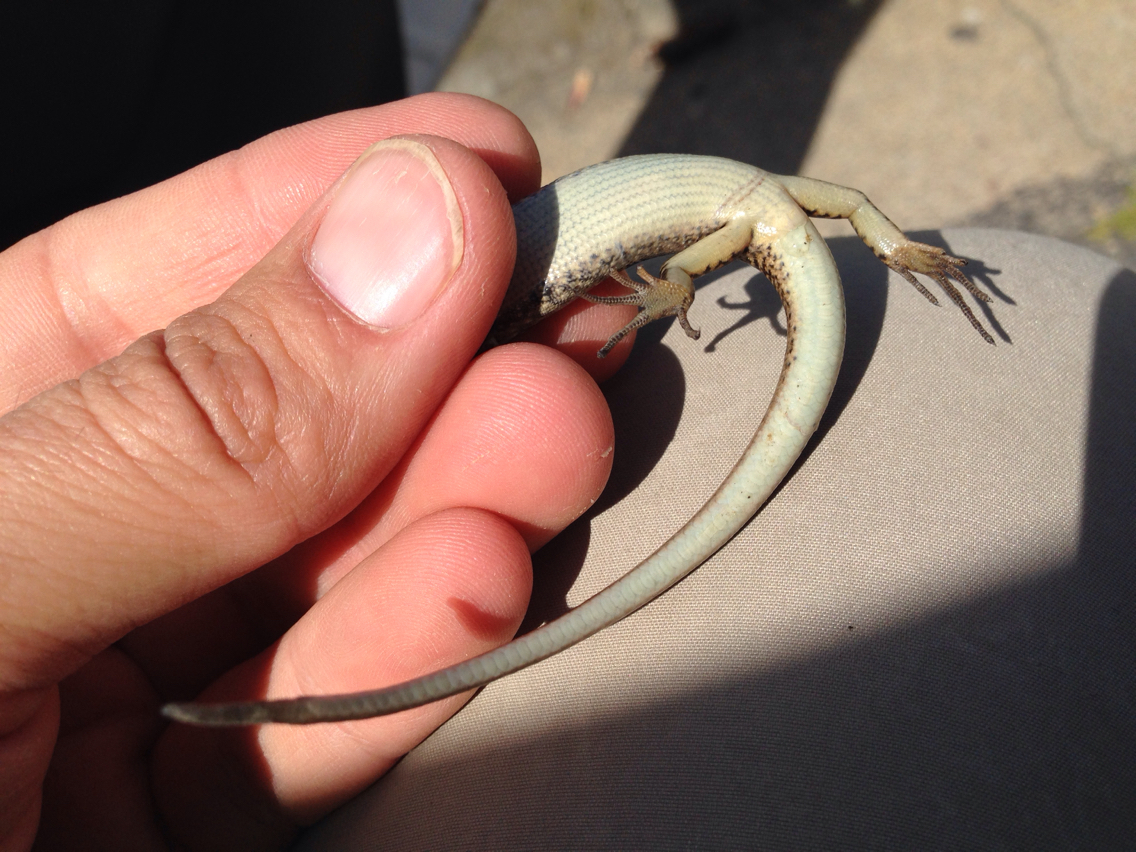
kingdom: Animalia
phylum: Chordata
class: Squamata
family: Scincidae
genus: Eulamprus
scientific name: Eulamprus heatwolei
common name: Warm-temperate water-skink
